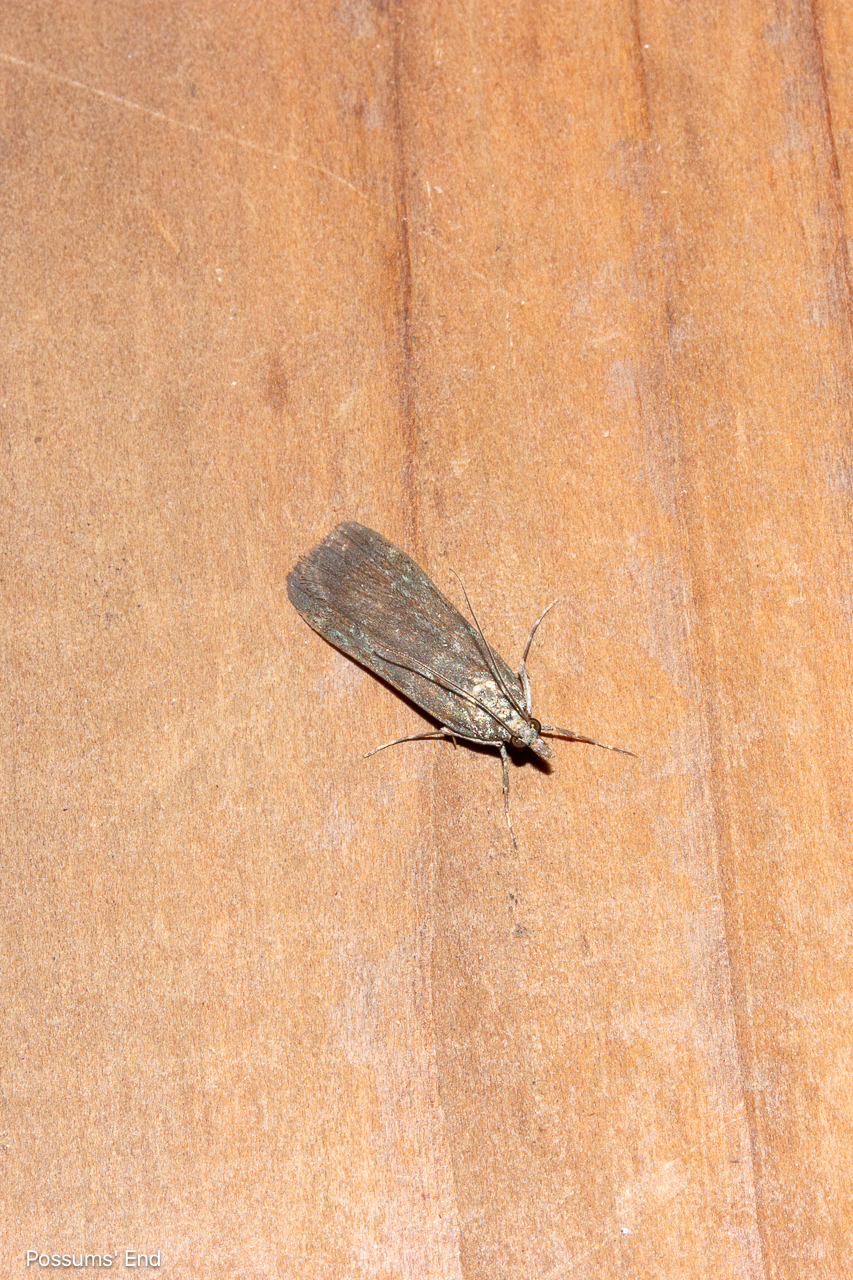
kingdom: Animalia
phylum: Arthropoda
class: Insecta
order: Lepidoptera
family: Crambidae
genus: Eudonia
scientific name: Eudonia cataxesta
